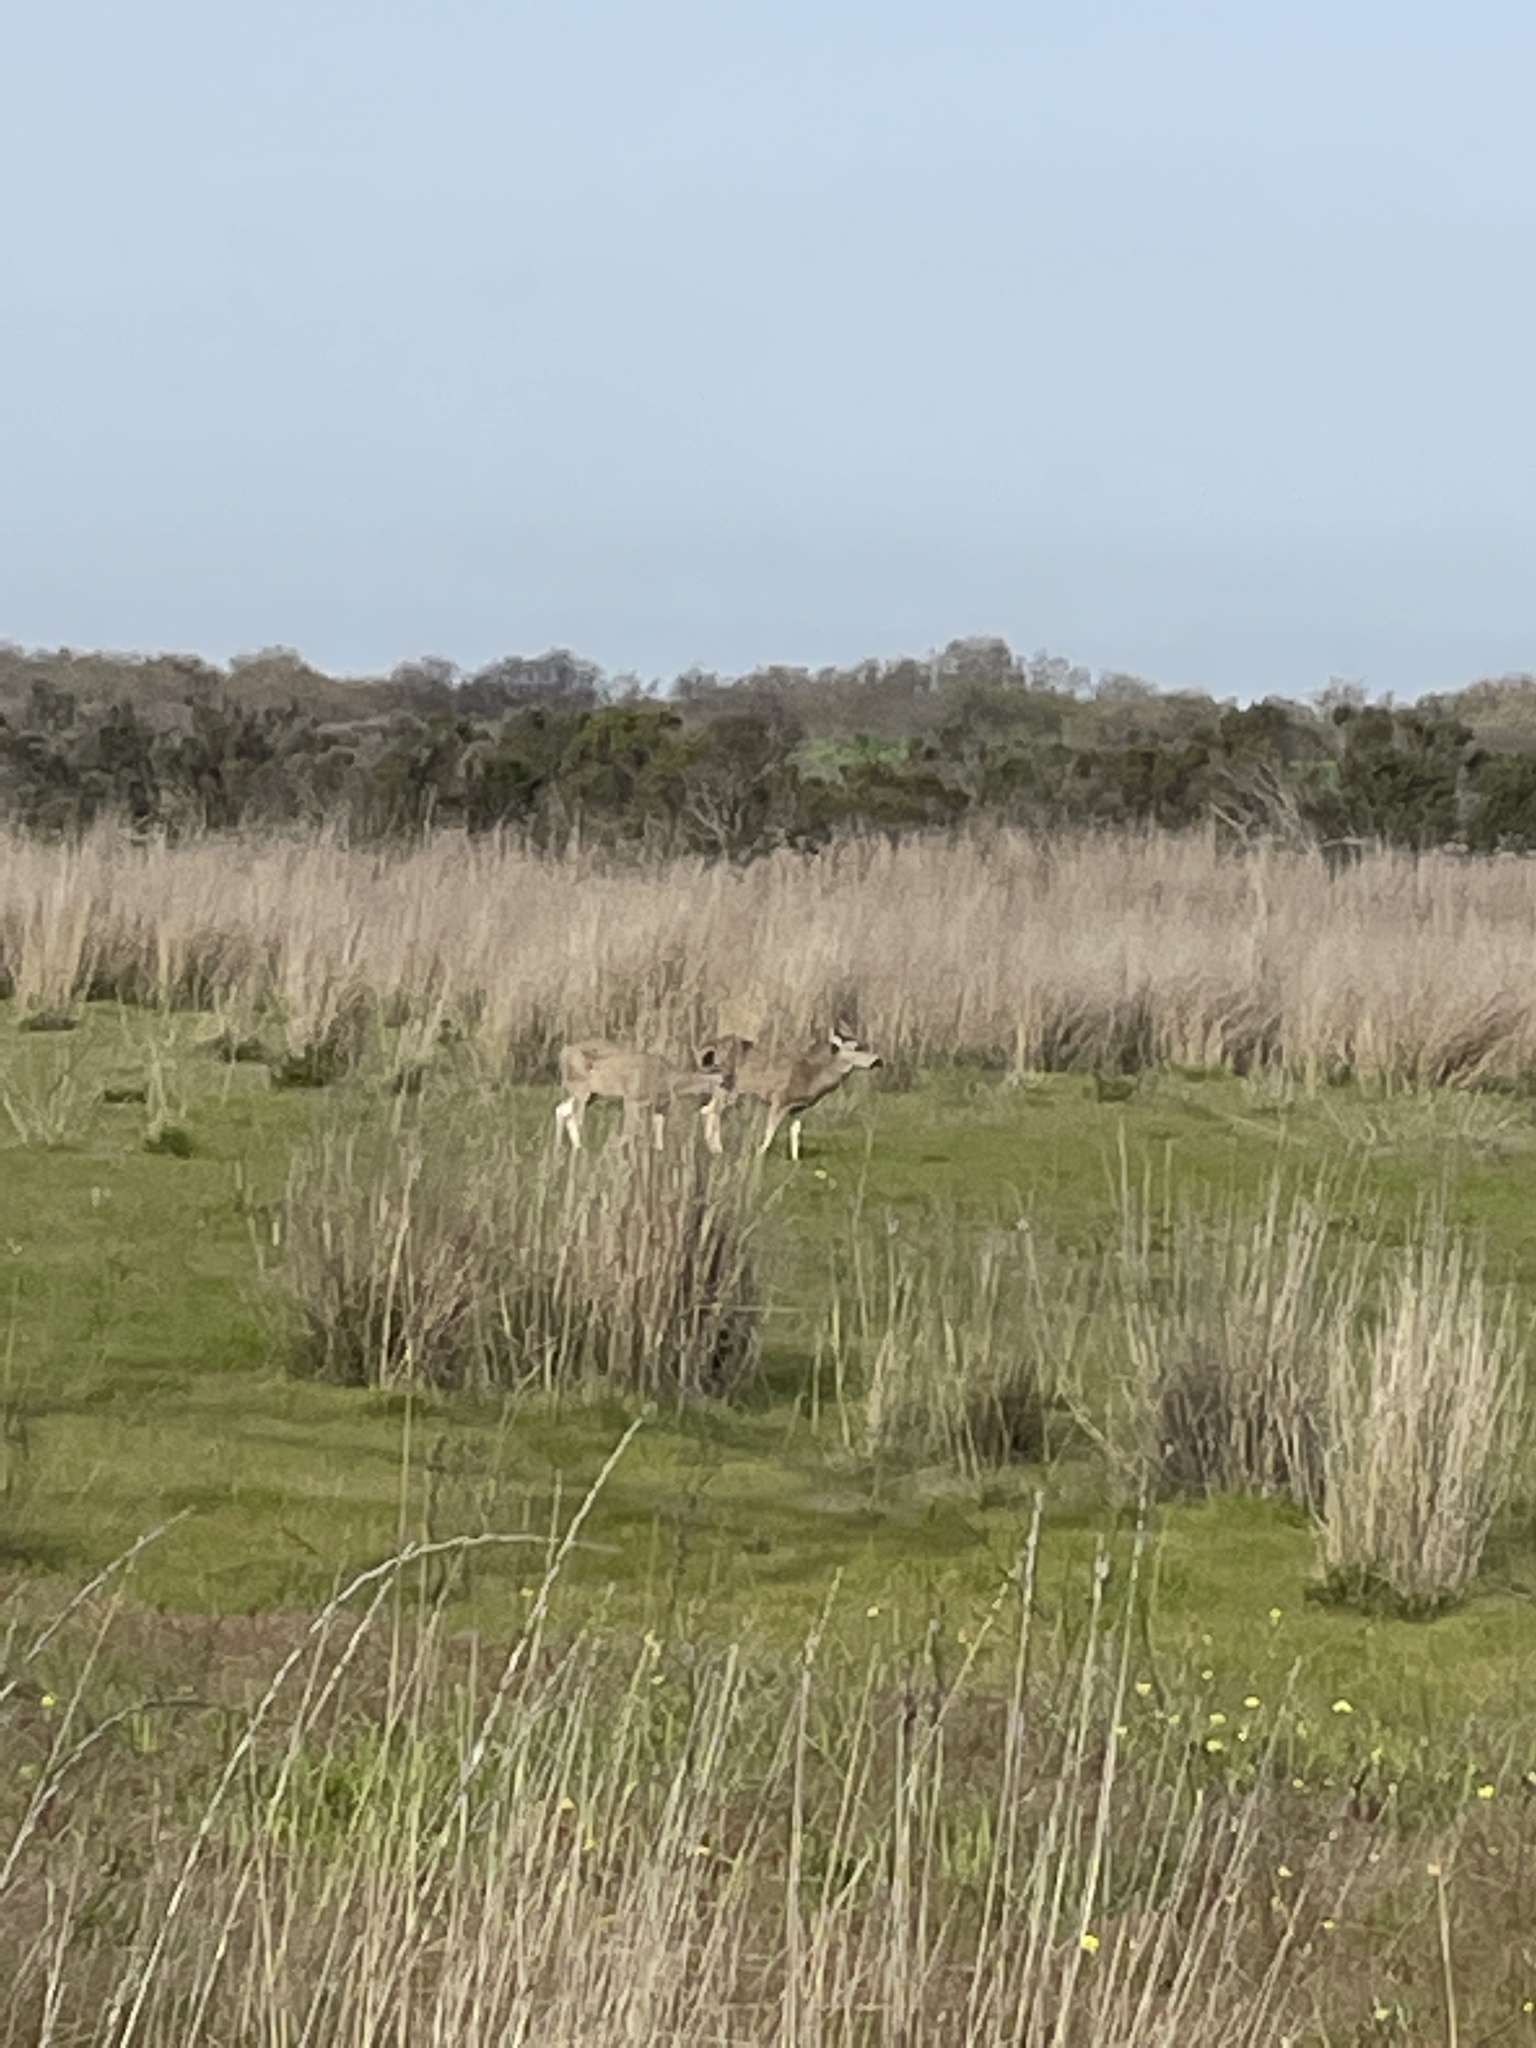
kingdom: Animalia
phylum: Chordata
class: Mammalia
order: Artiodactyla
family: Cervidae
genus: Odocoileus
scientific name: Odocoileus hemionus
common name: Mule deer
